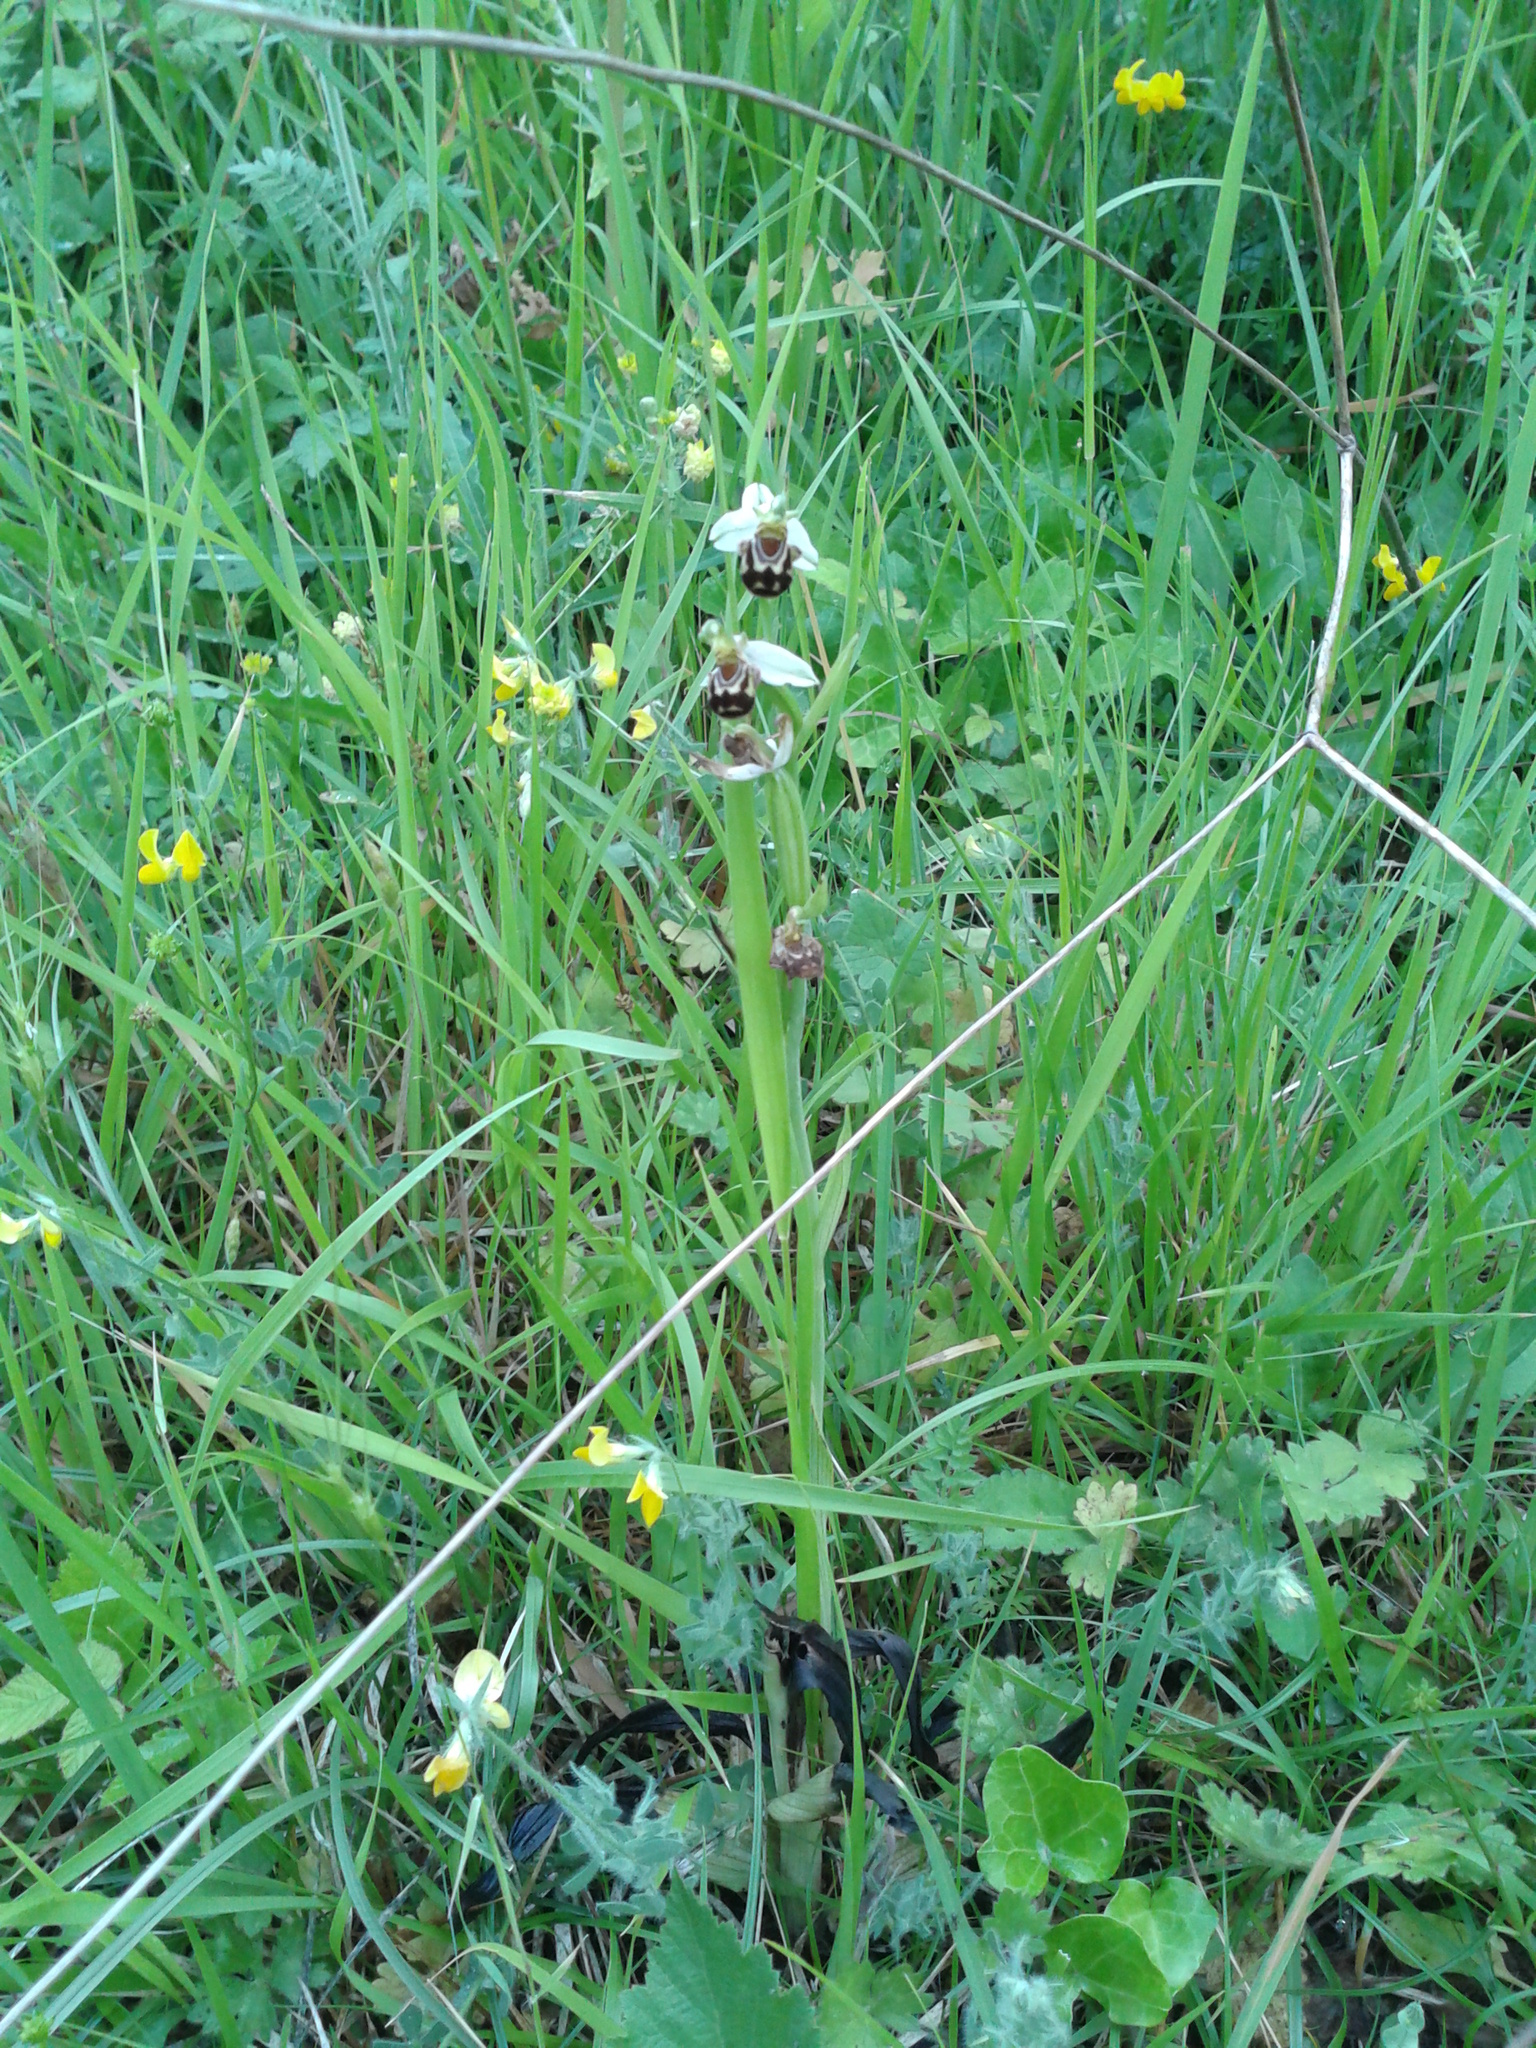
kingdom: Plantae
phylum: Tracheophyta
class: Liliopsida
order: Asparagales
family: Orchidaceae
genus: Ophrys
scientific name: Ophrys apifera
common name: Bee orchid
